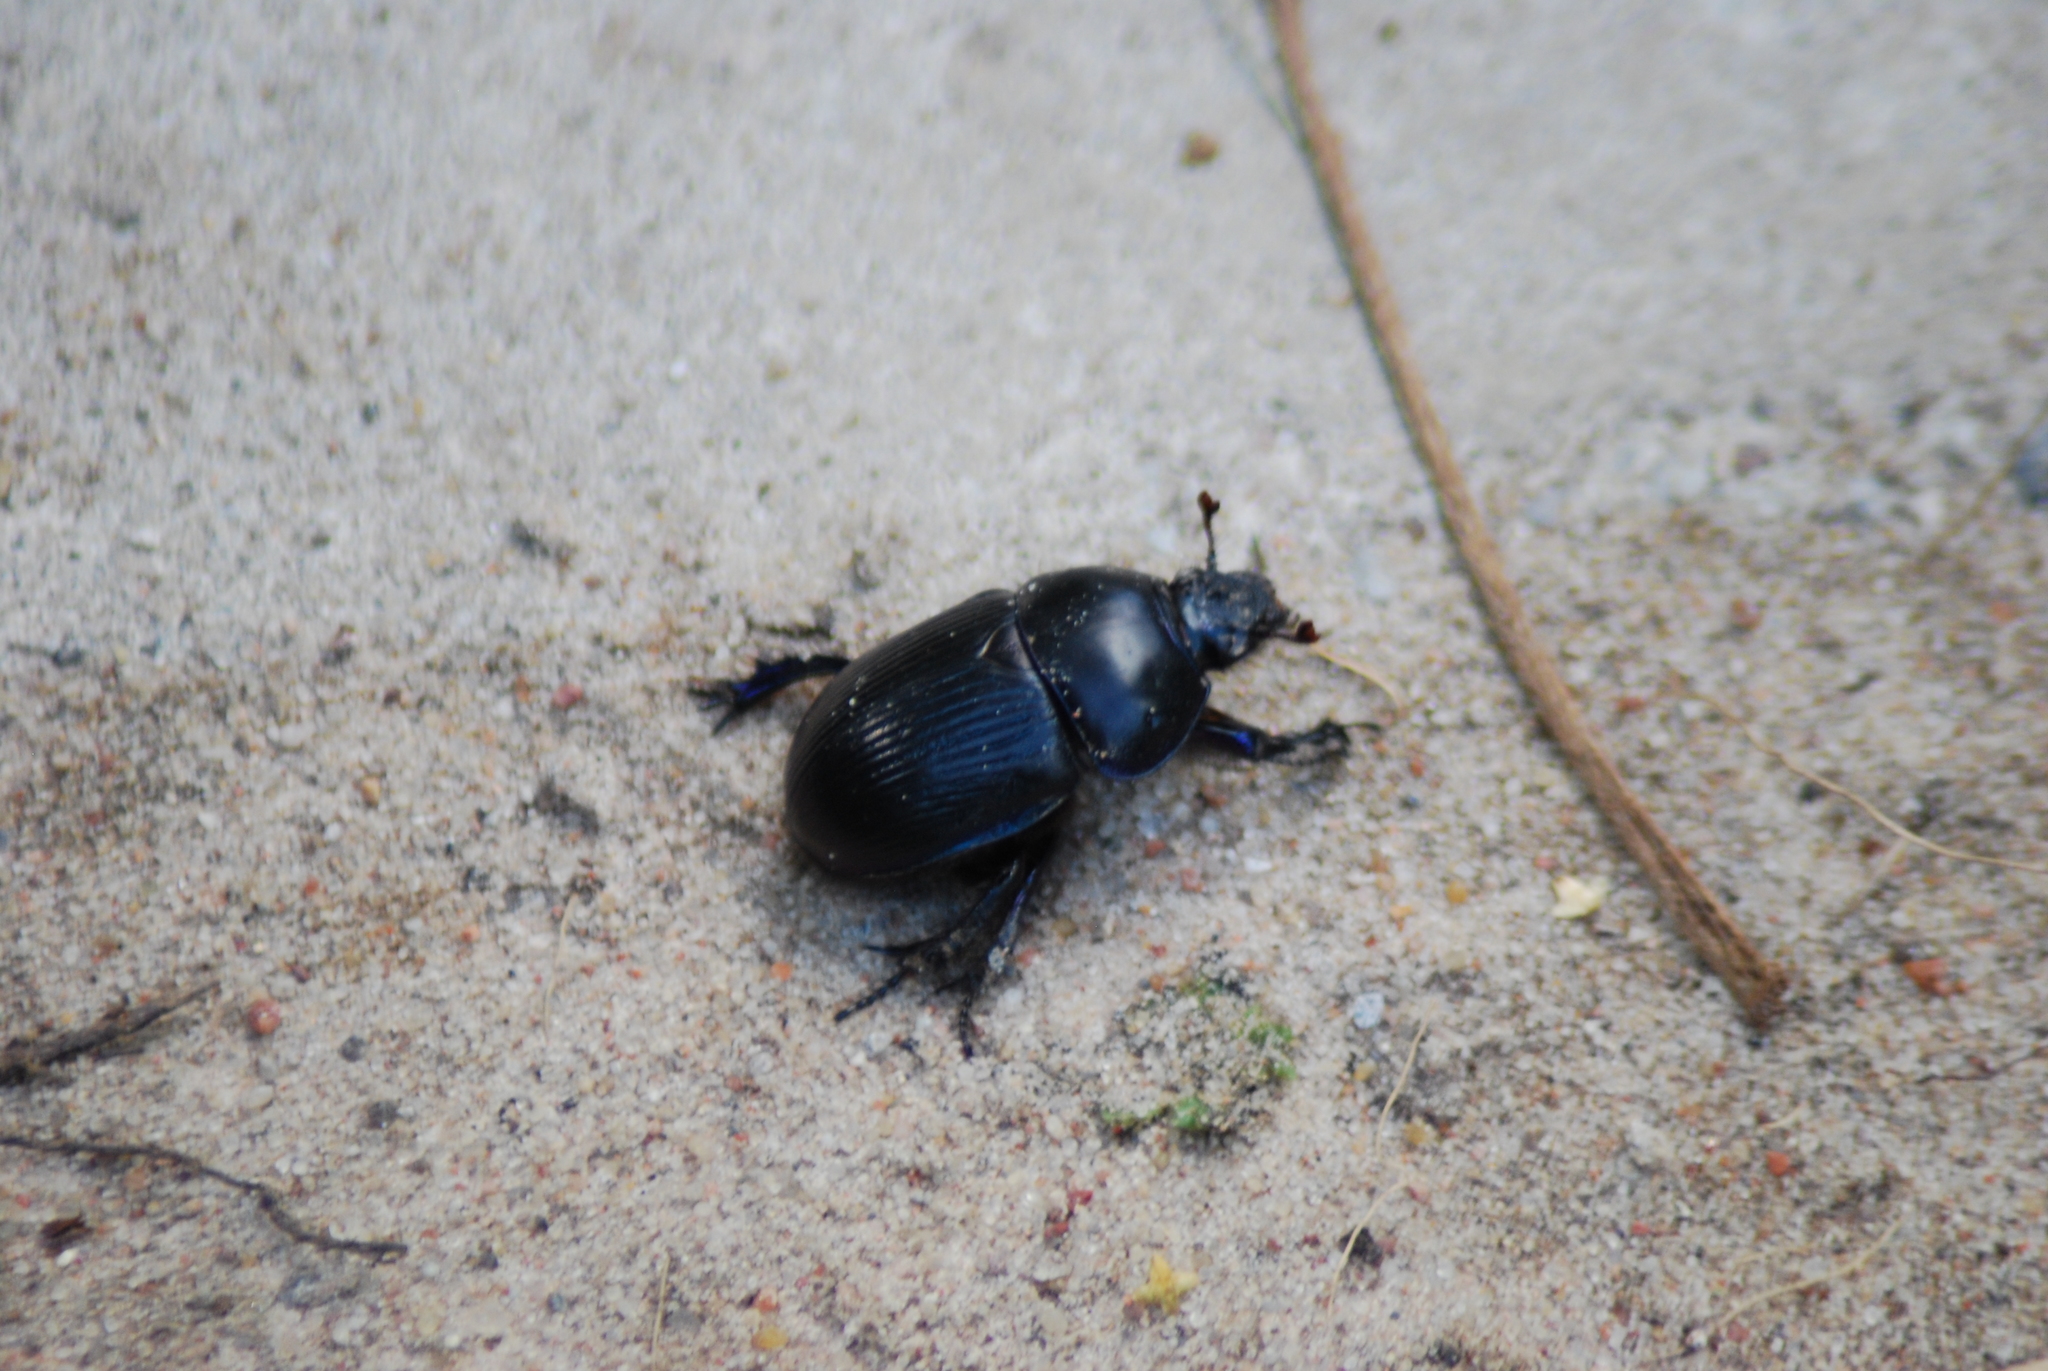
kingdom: Animalia
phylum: Arthropoda
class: Insecta
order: Coleoptera
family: Geotrupidae
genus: Anoplotrupes
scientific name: Anoplotrupes stercorosus
